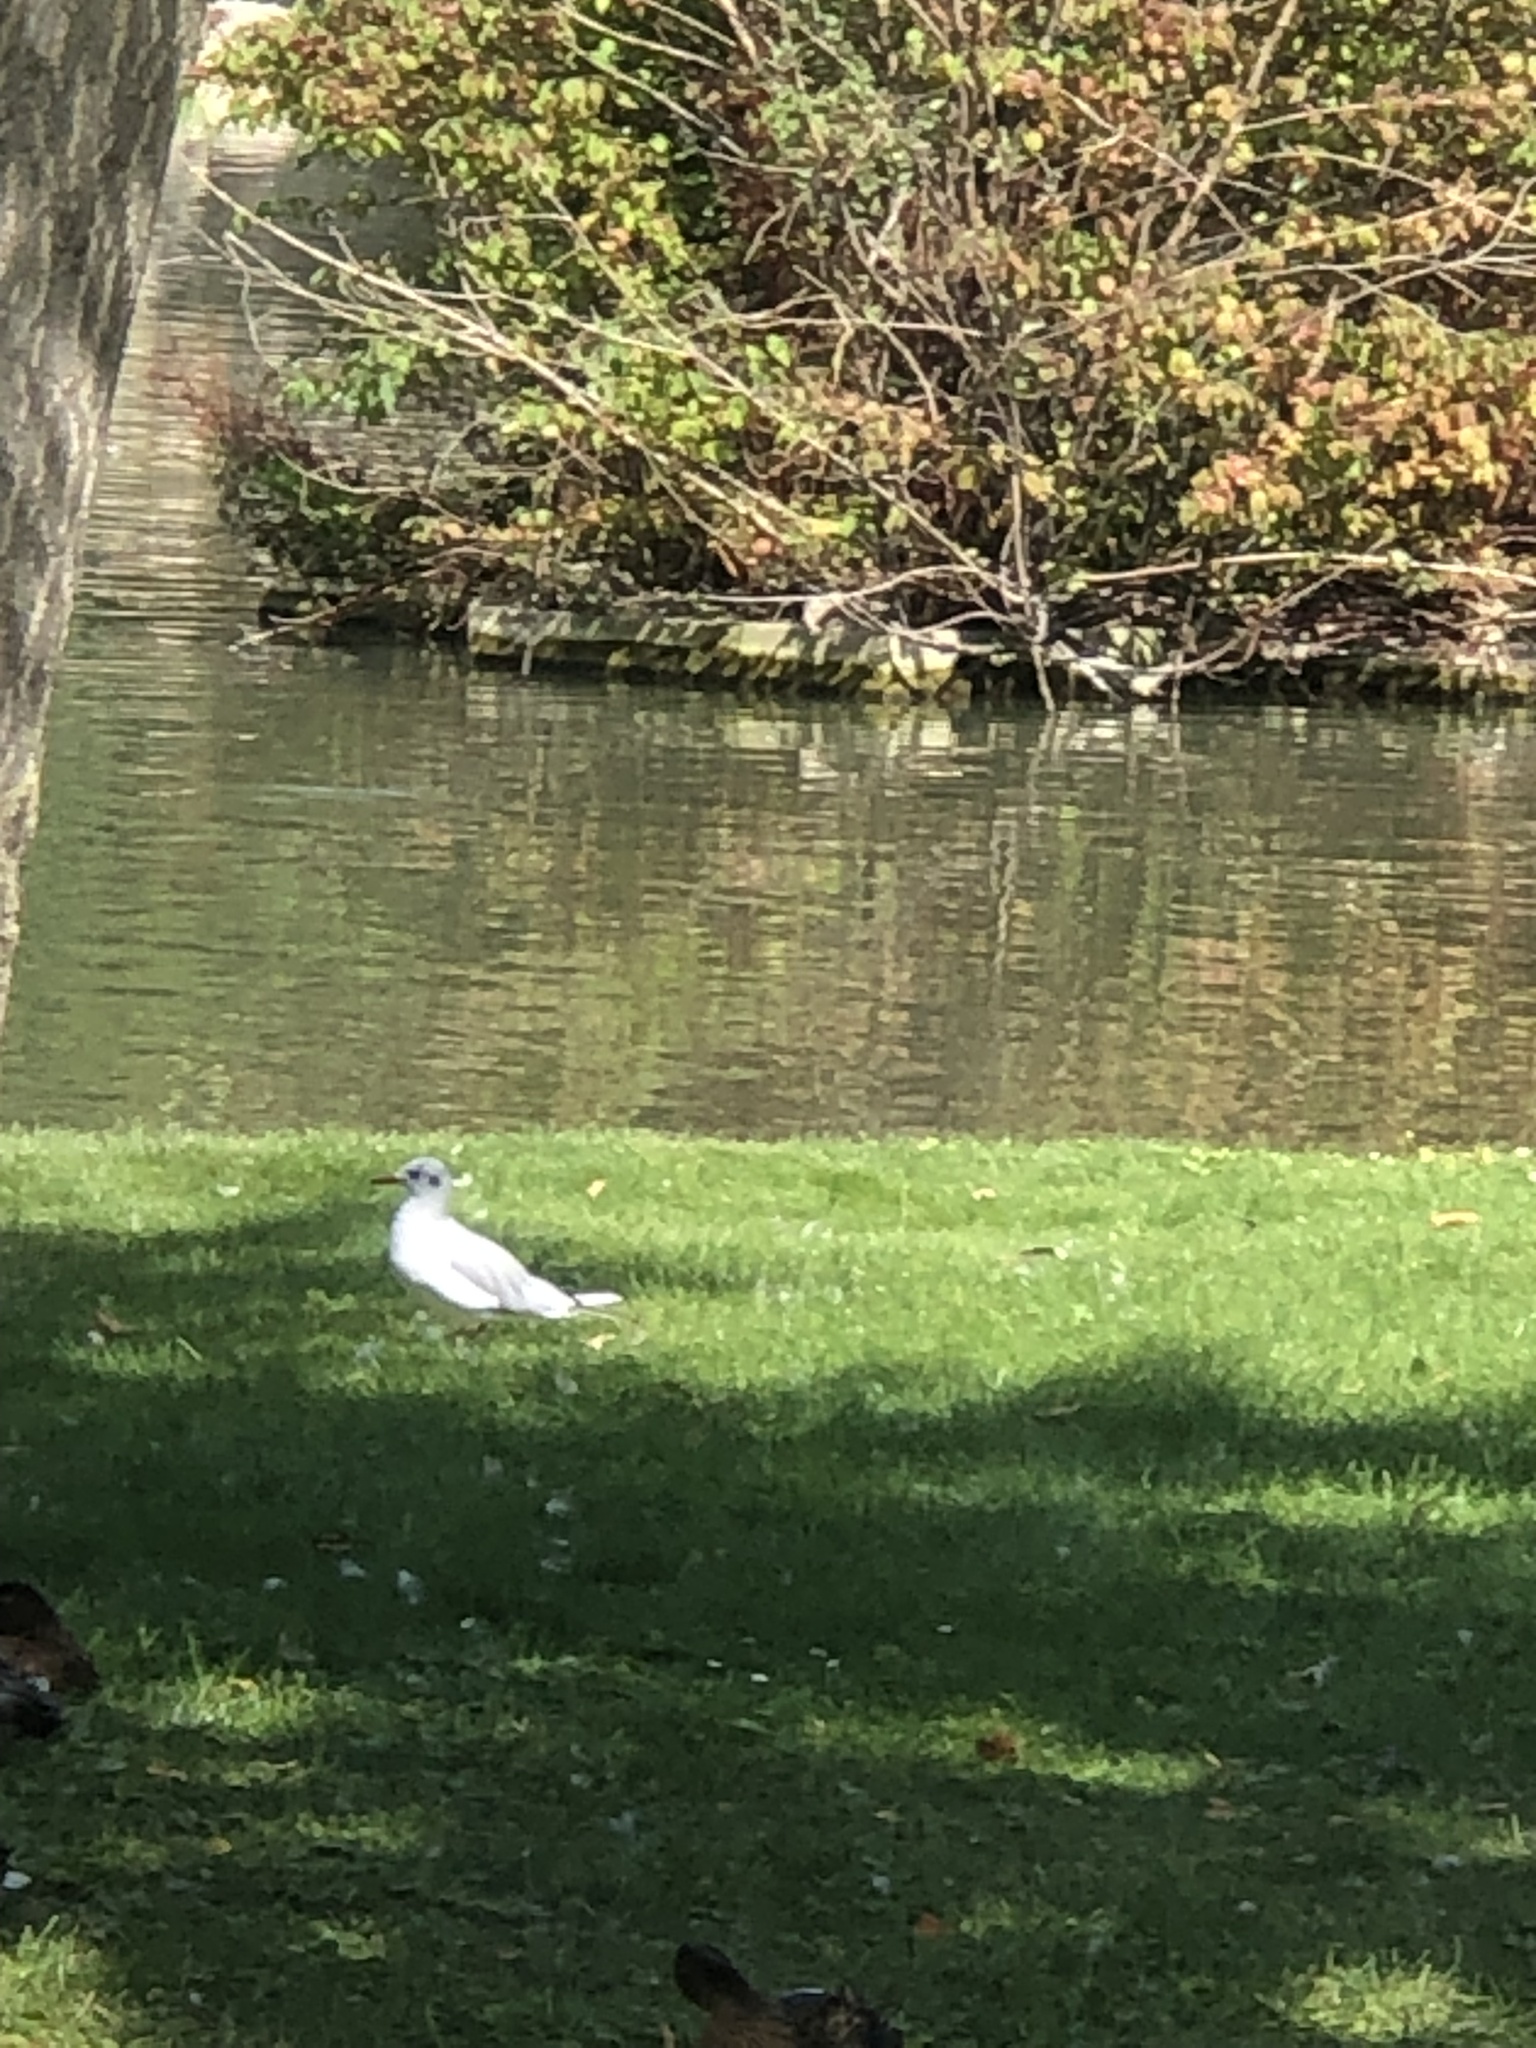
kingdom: Animalia
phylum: Chordata
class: Aves
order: Charadriiformes
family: Laridae
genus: Chroicocephalus
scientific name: Chroicocephalus ridibundus
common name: Black-headed gull
